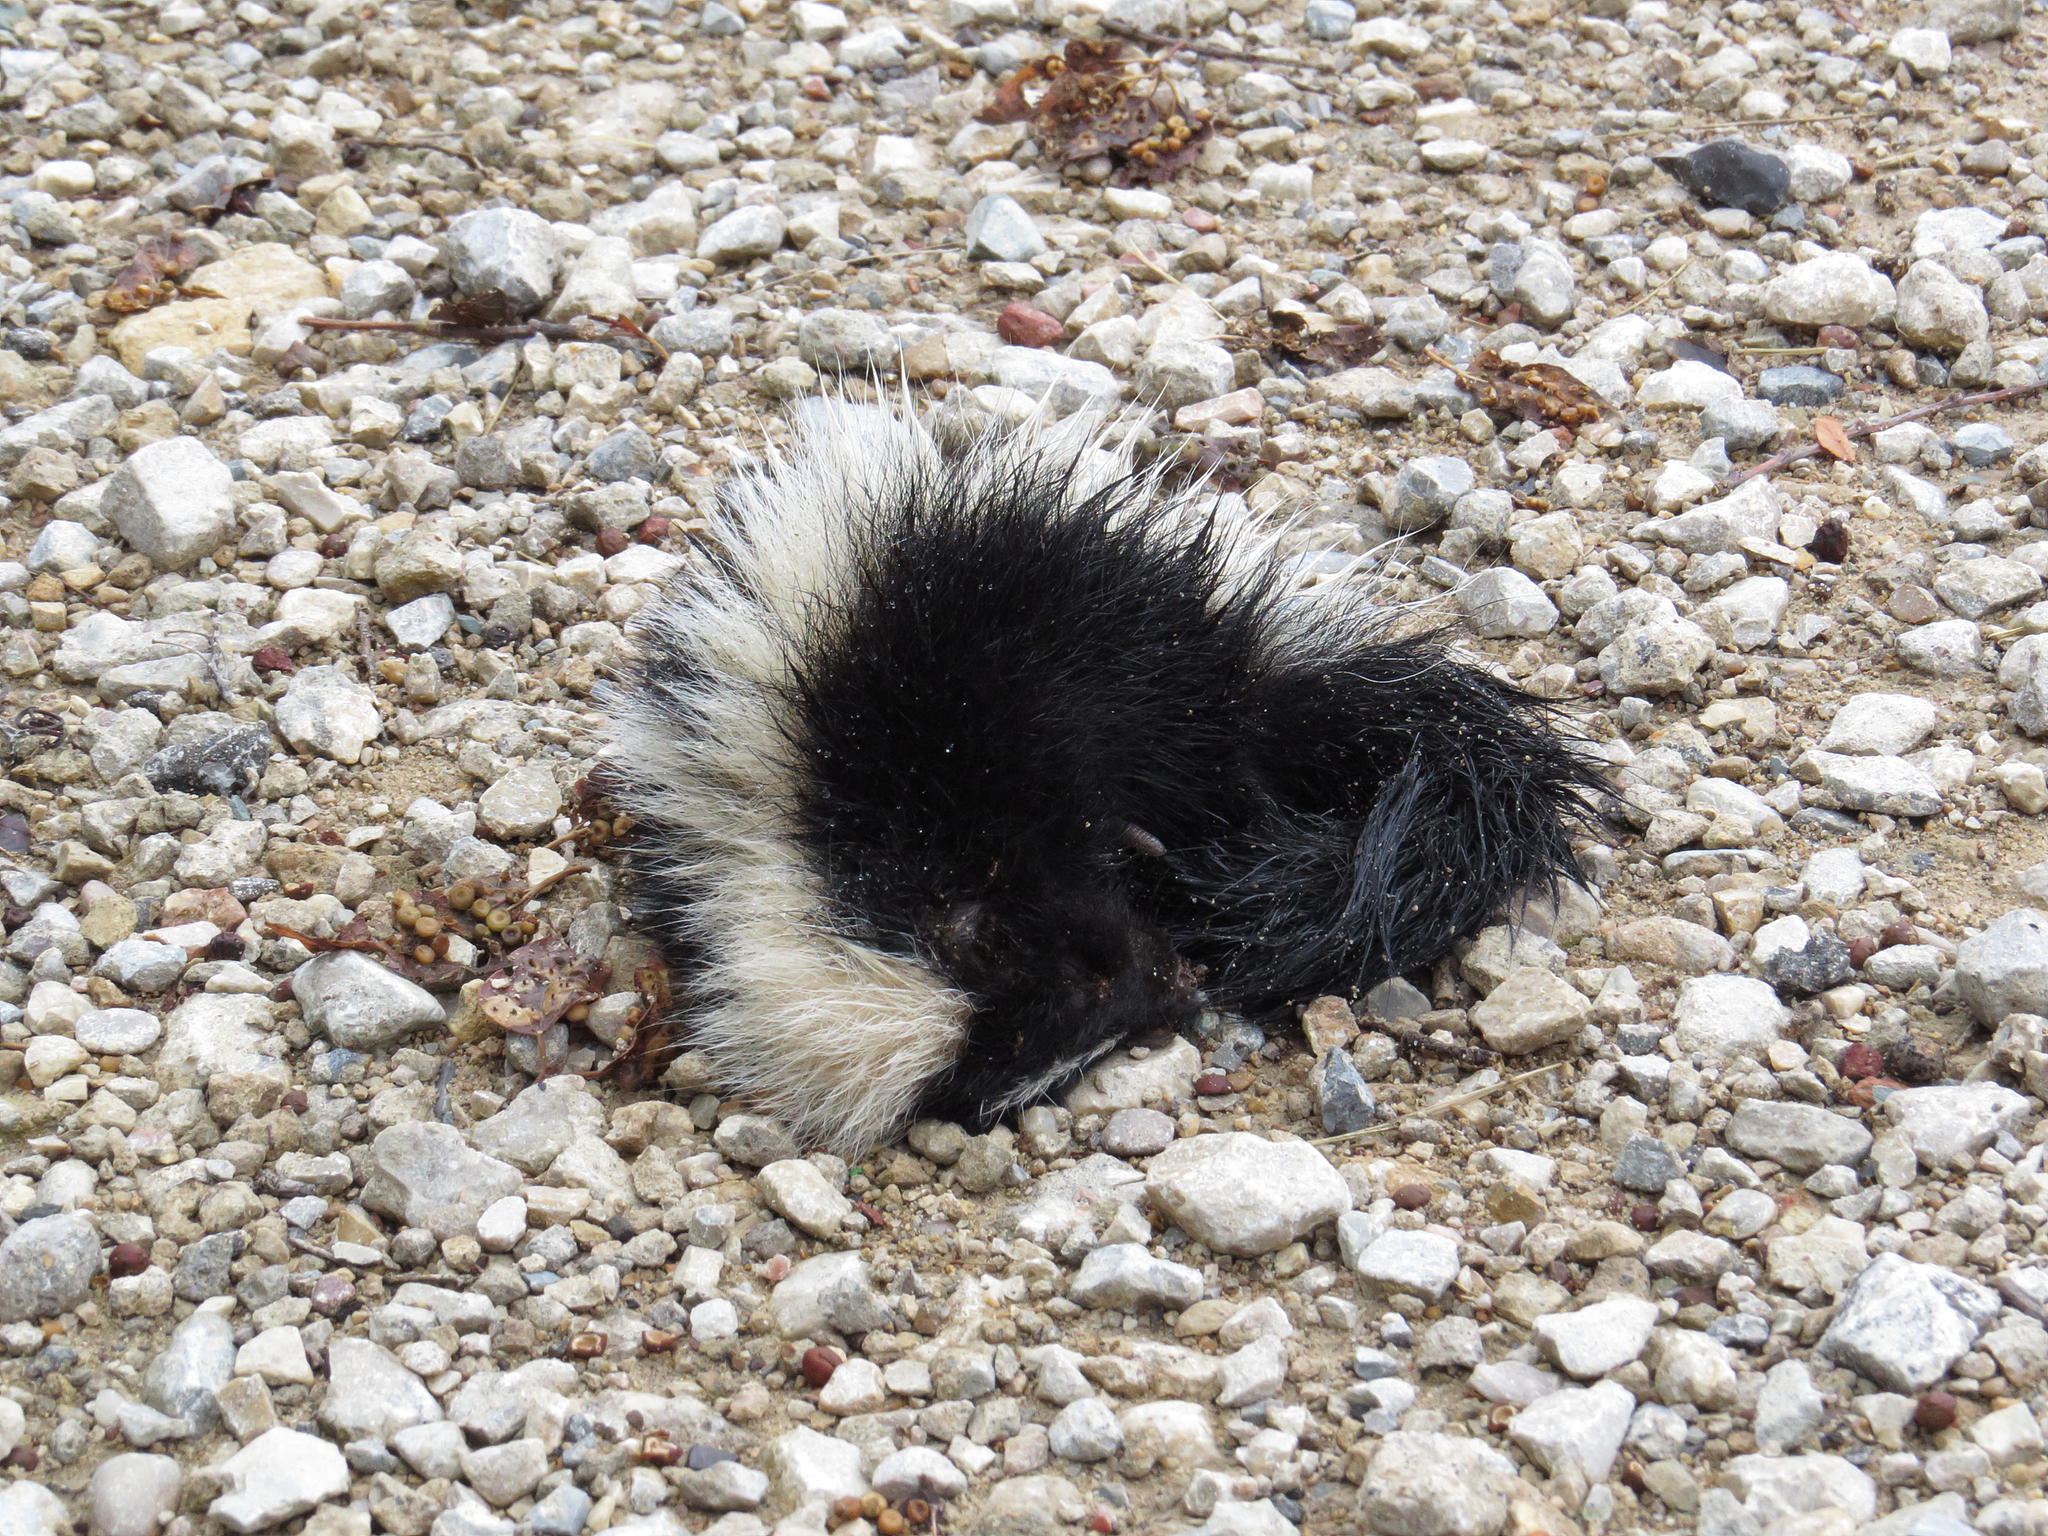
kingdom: Animalia
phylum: Chordata
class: Mammalia
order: Carnivora
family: Mephitidae
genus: Mephitis
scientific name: Mephitis mephitis
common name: Striped skunk
